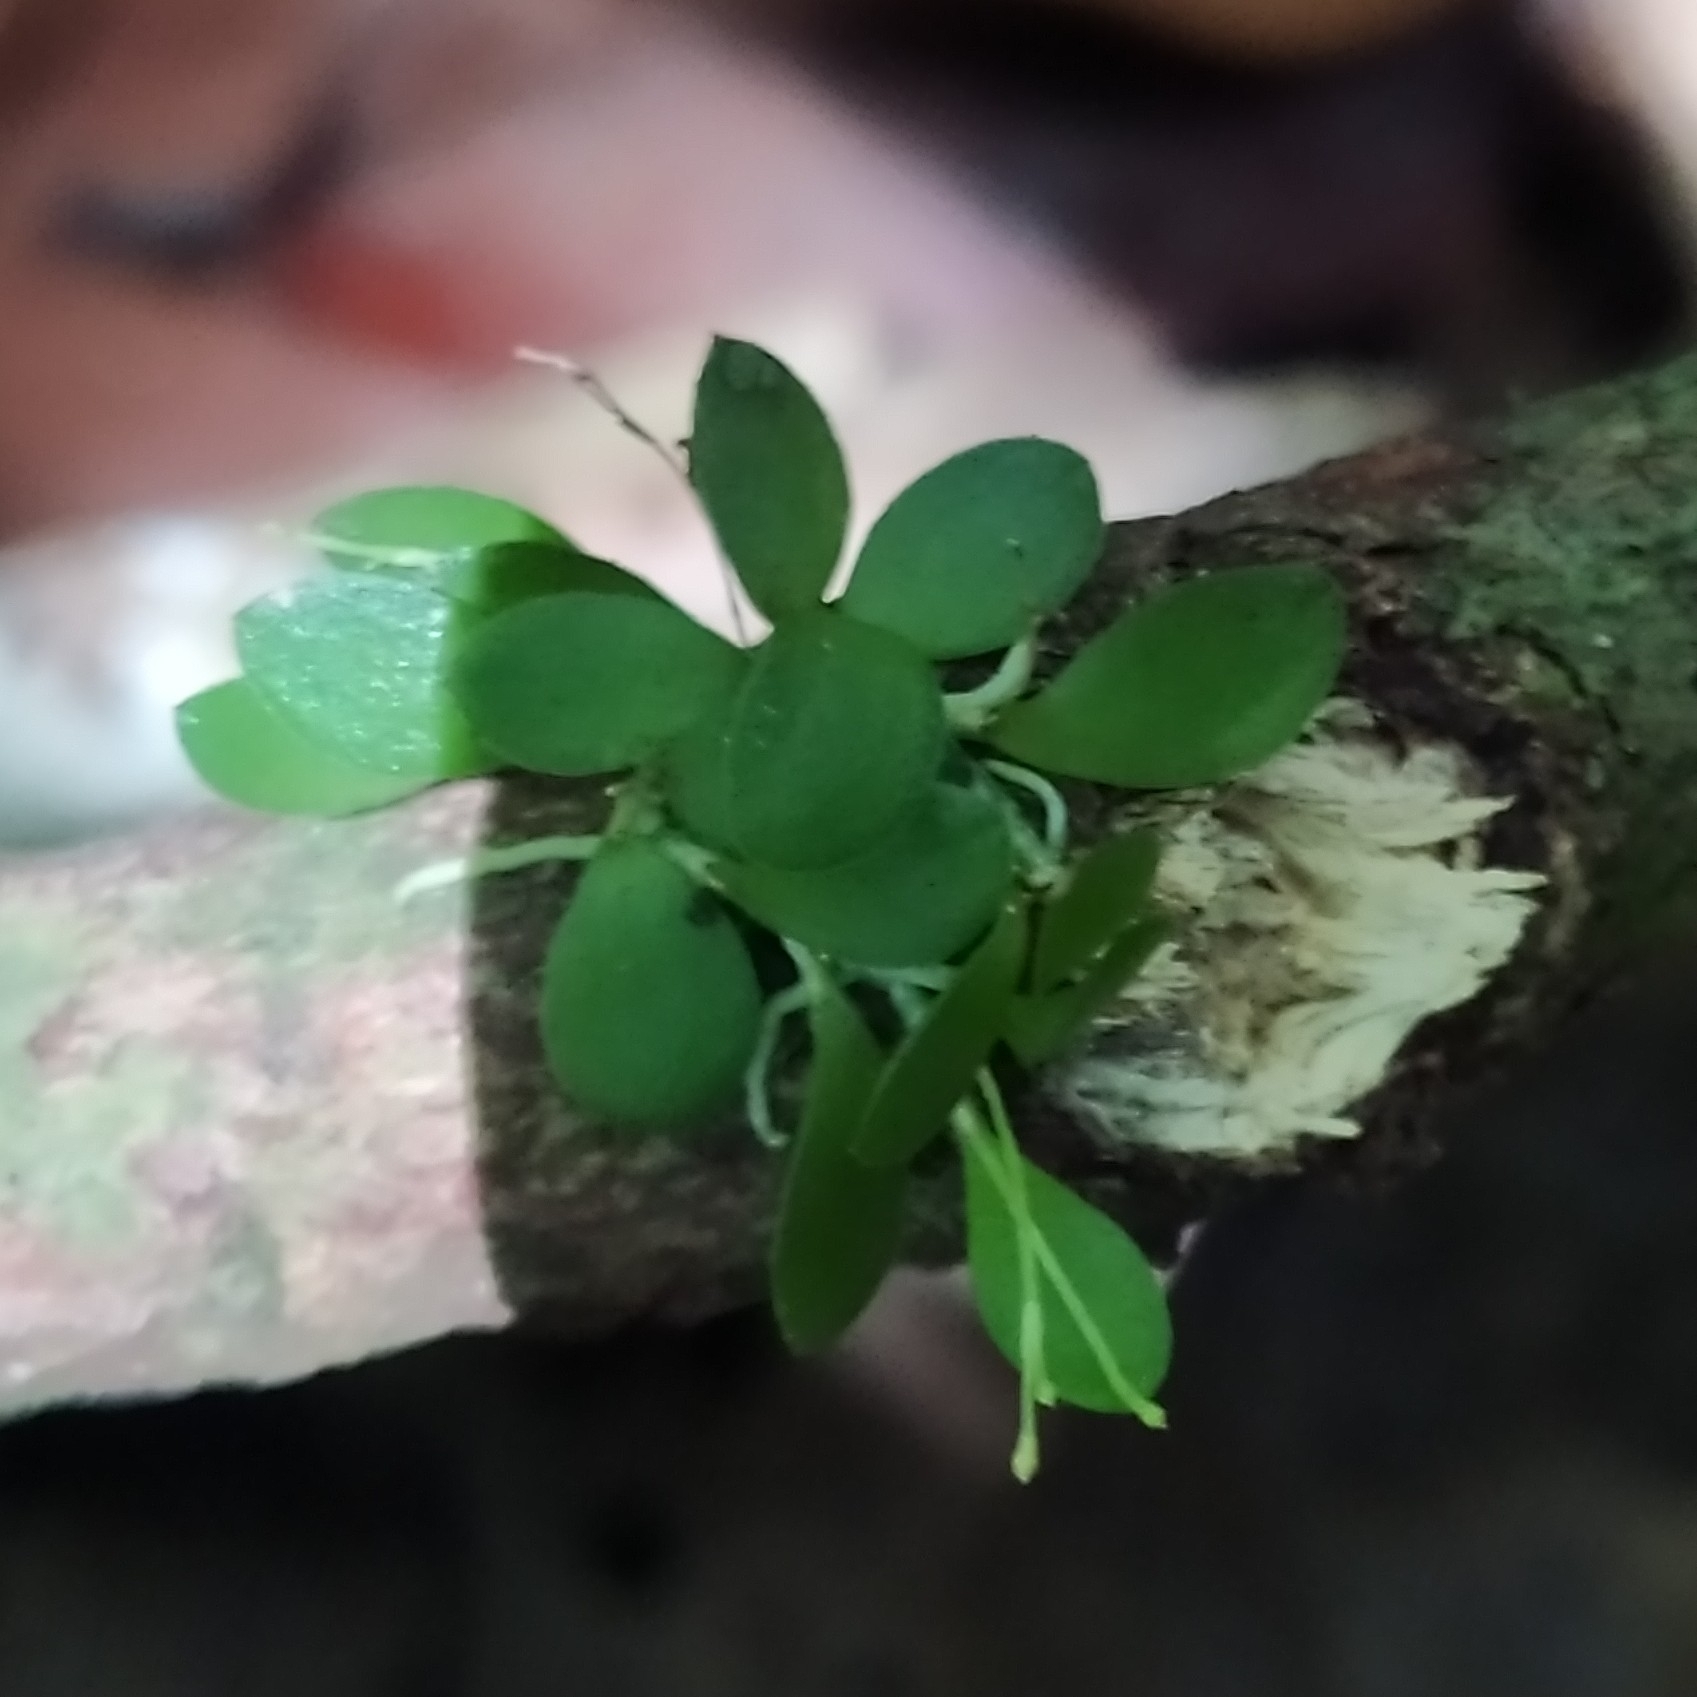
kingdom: Plantae
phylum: Tracheophyta
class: Liliopsida
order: Asparagales
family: Orchidaceae
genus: Platystele
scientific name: Platystele ovalifolia
